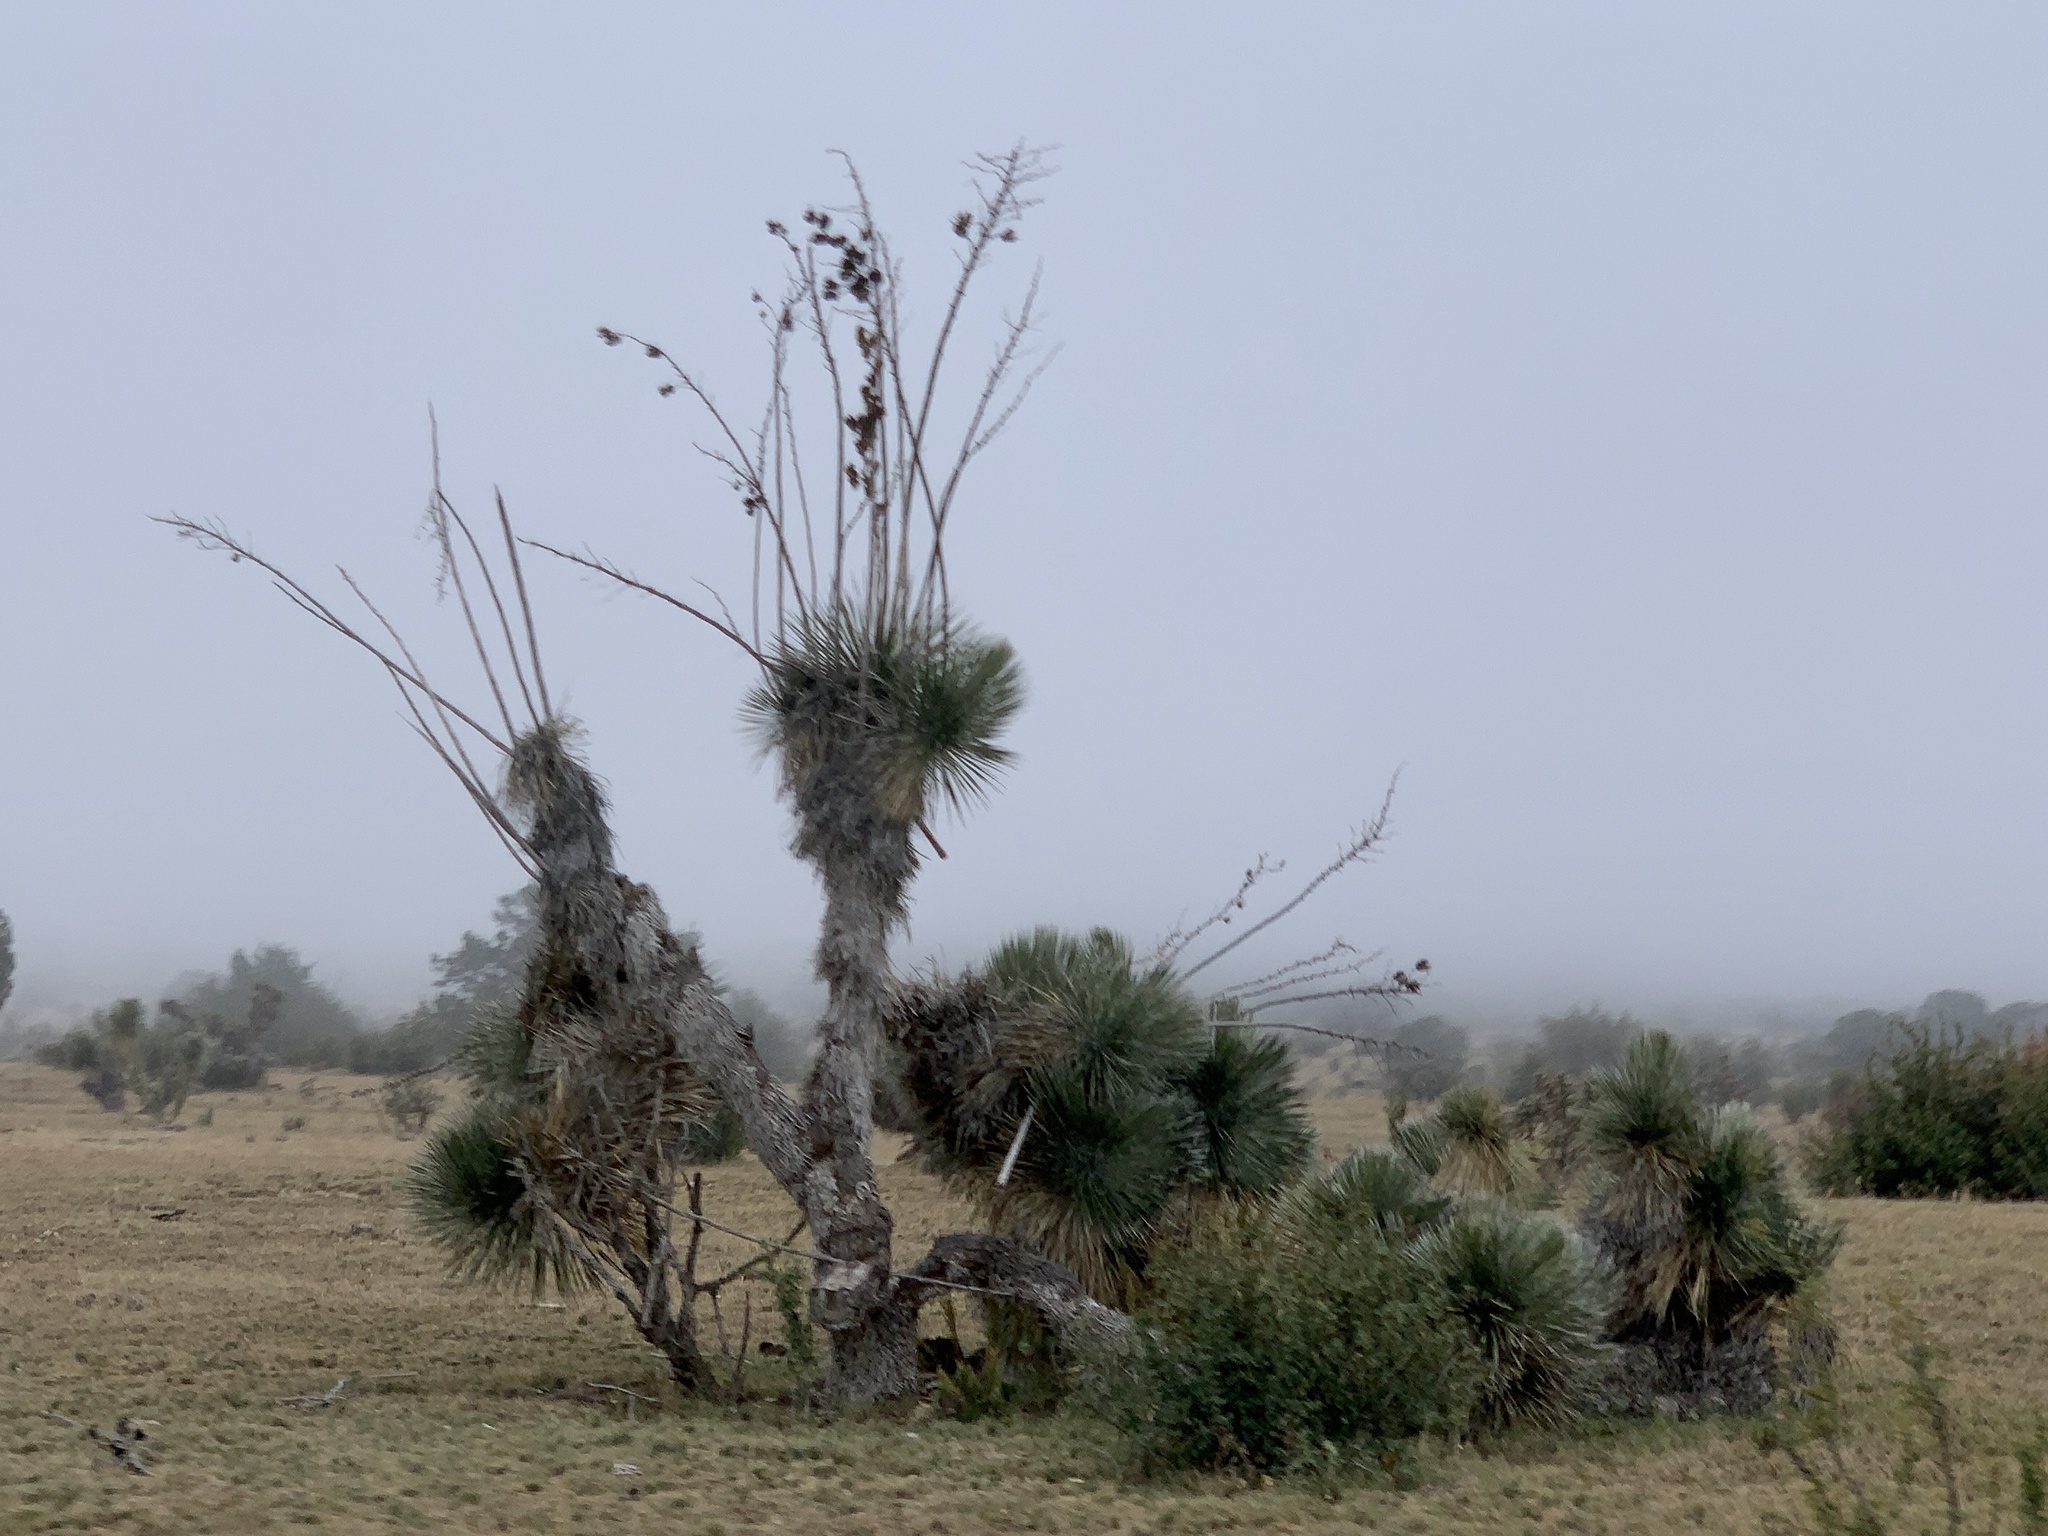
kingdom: Plantae
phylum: Tracheophyta
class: Liliopsida
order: Asparagales
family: Asparagaceae
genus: Yucca
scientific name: Yucca elata
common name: Palmella
